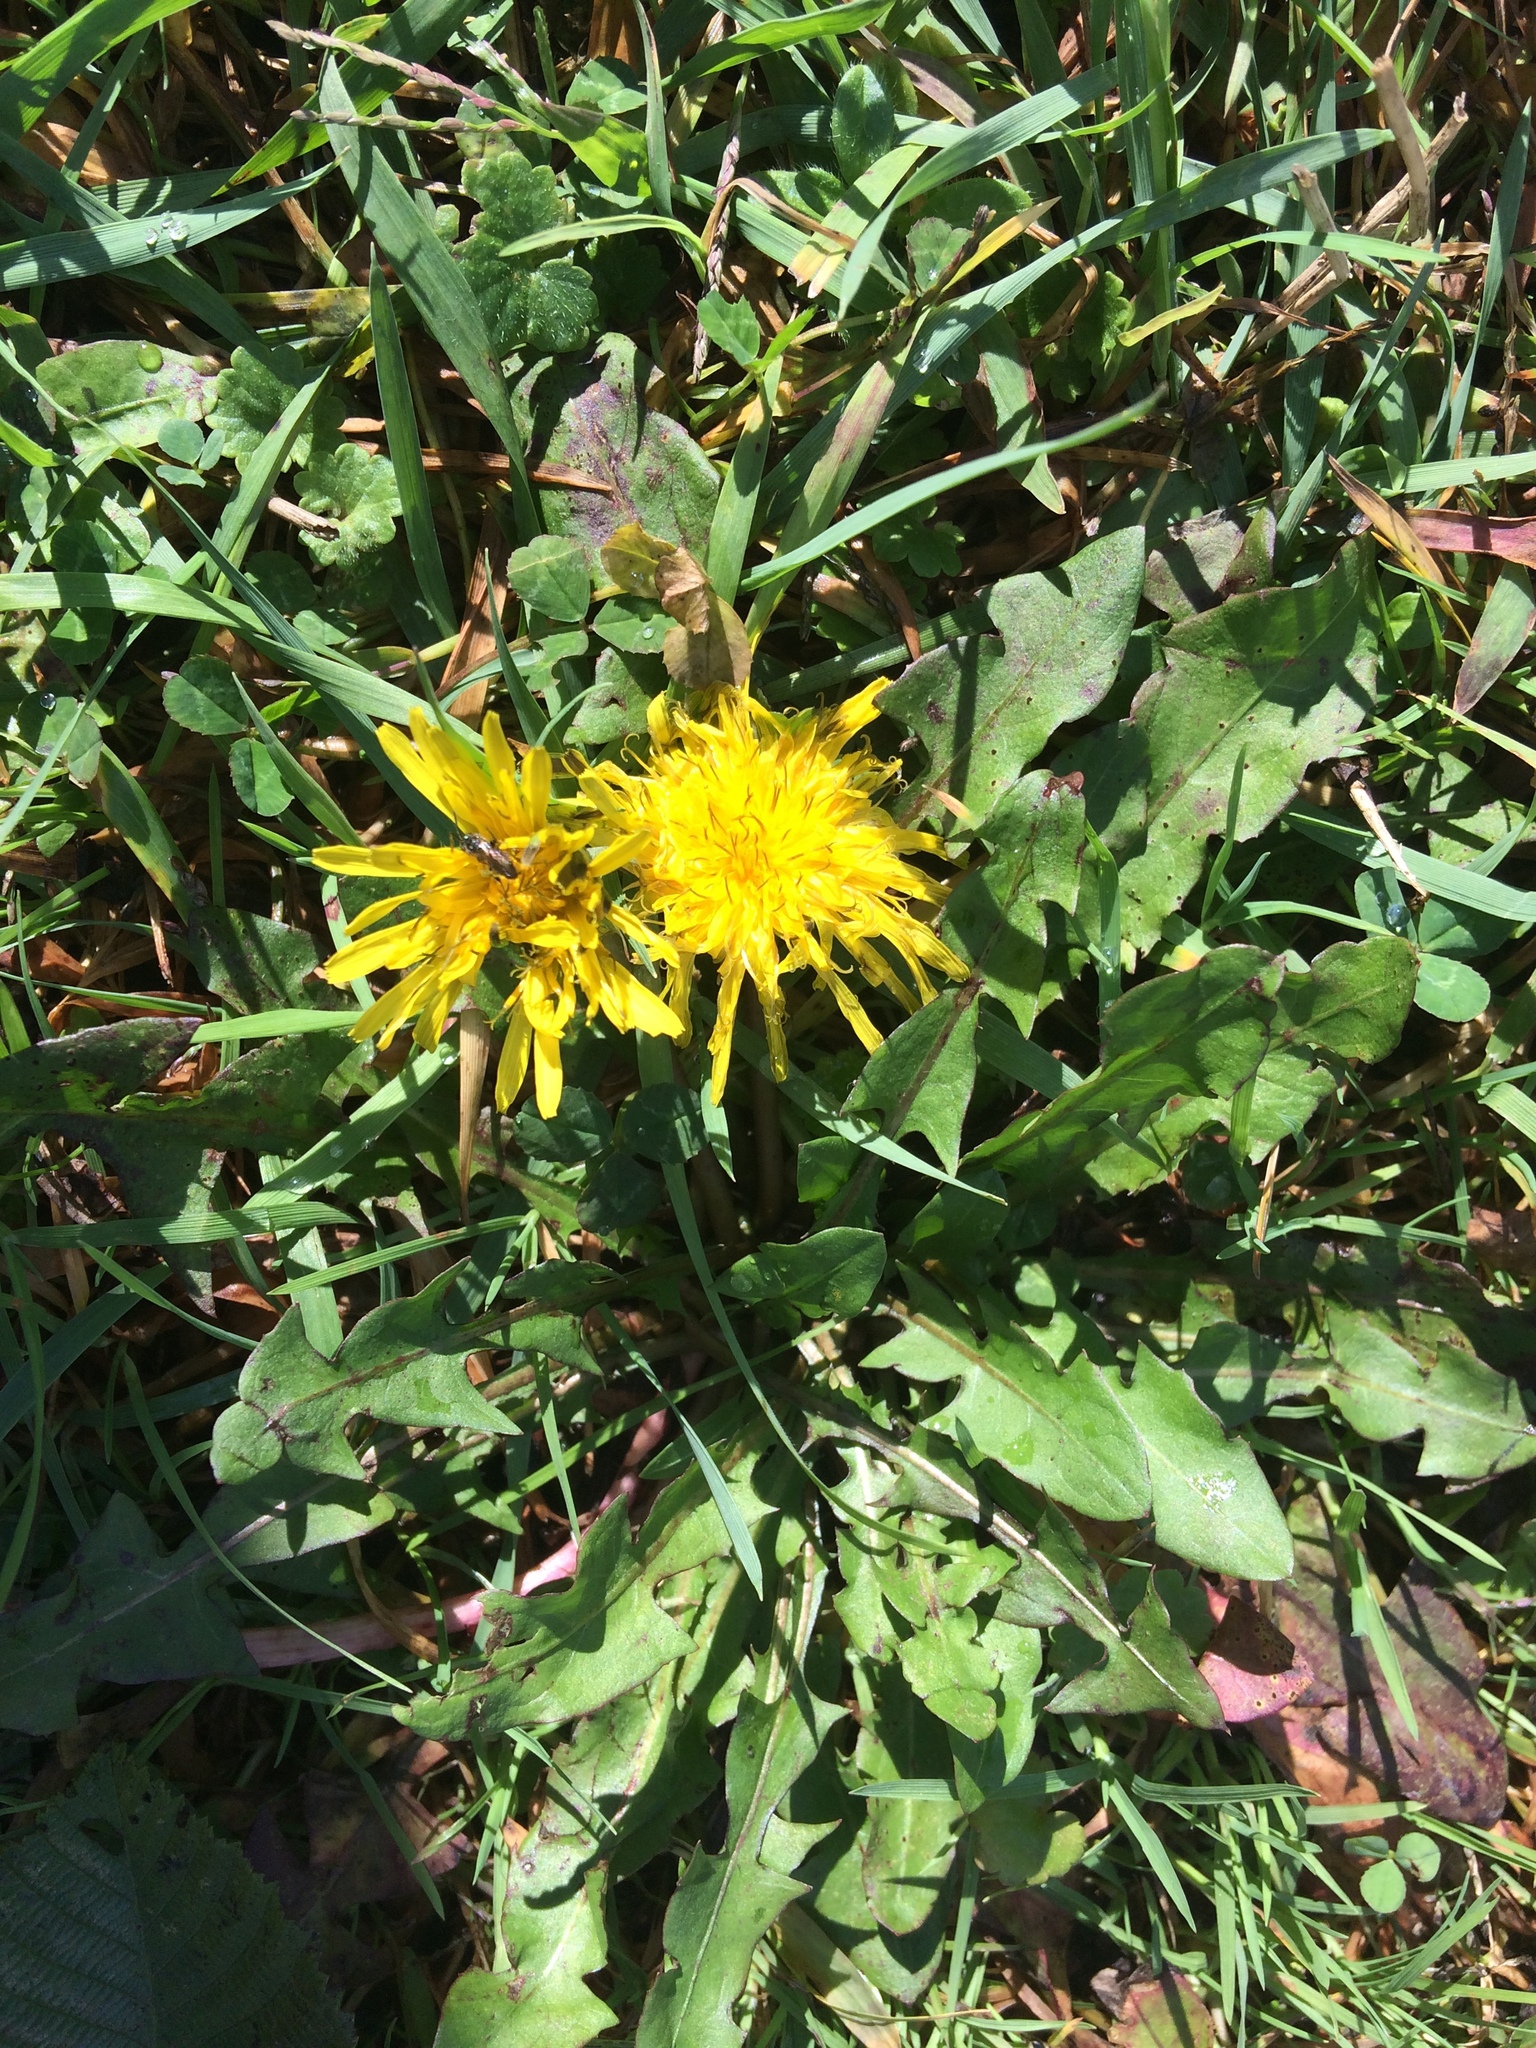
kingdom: Plantae
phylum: Tracheophyta
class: Magnoliopsida
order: Asterales
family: Asteraceae
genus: Taraxacum
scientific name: Taraxacum officinale
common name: Common dandelion
